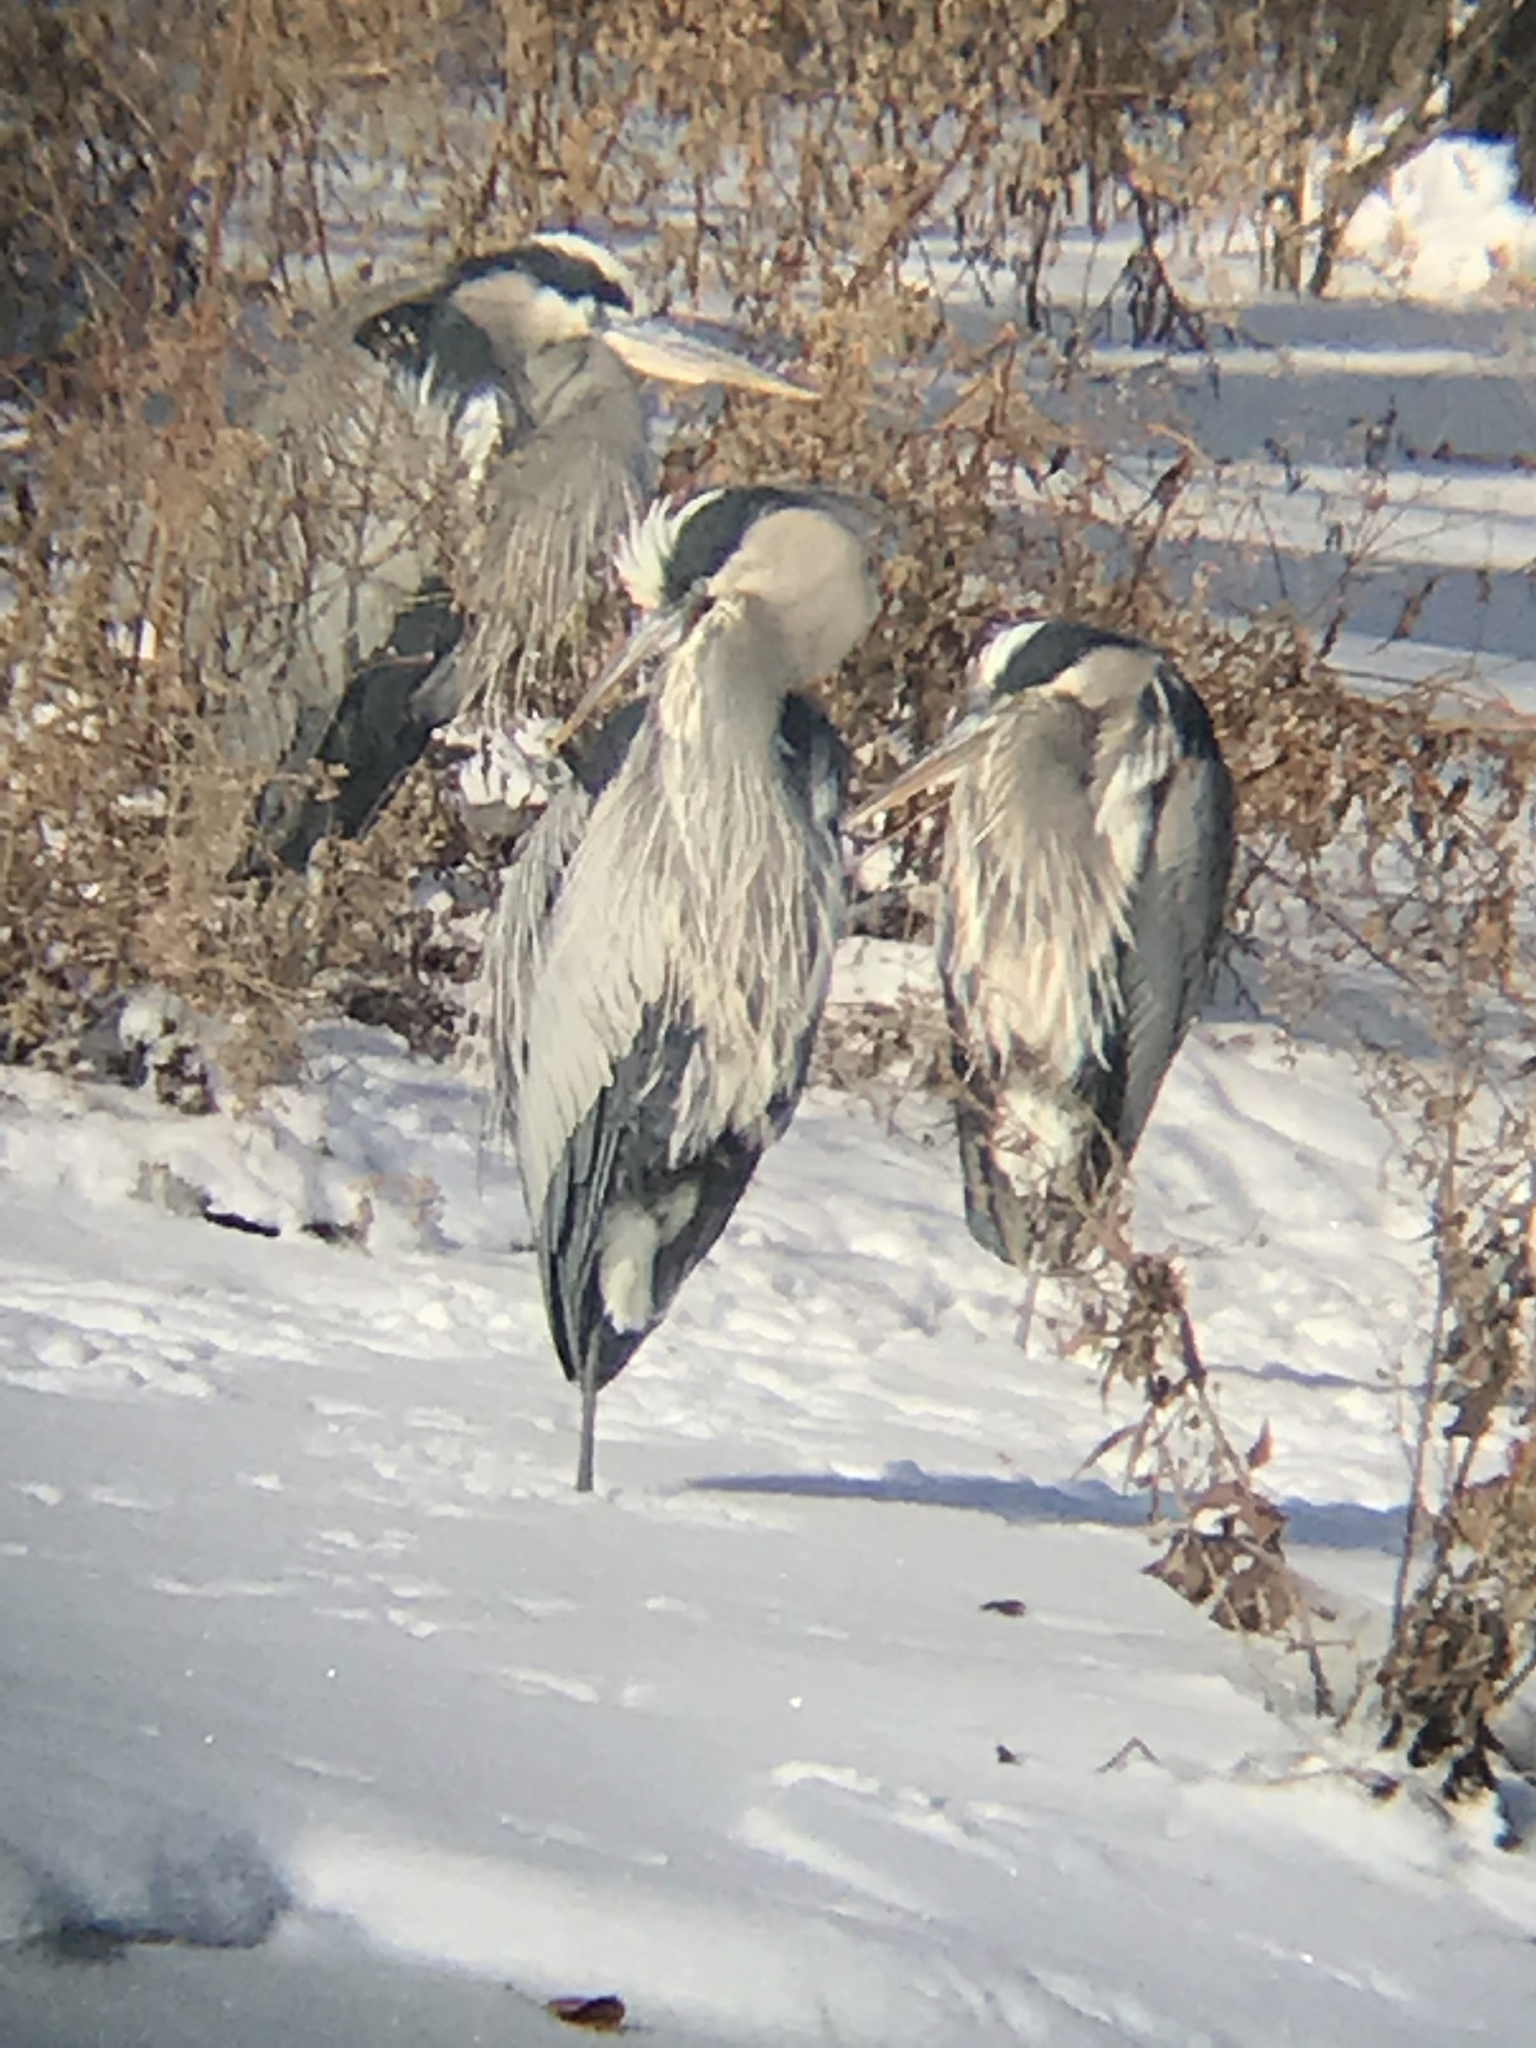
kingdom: Animalia
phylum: Chordata
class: Aves
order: Pelecaniformes
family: Ardeidae
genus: Ardea
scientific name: Ardea herodias
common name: Great blue heron
